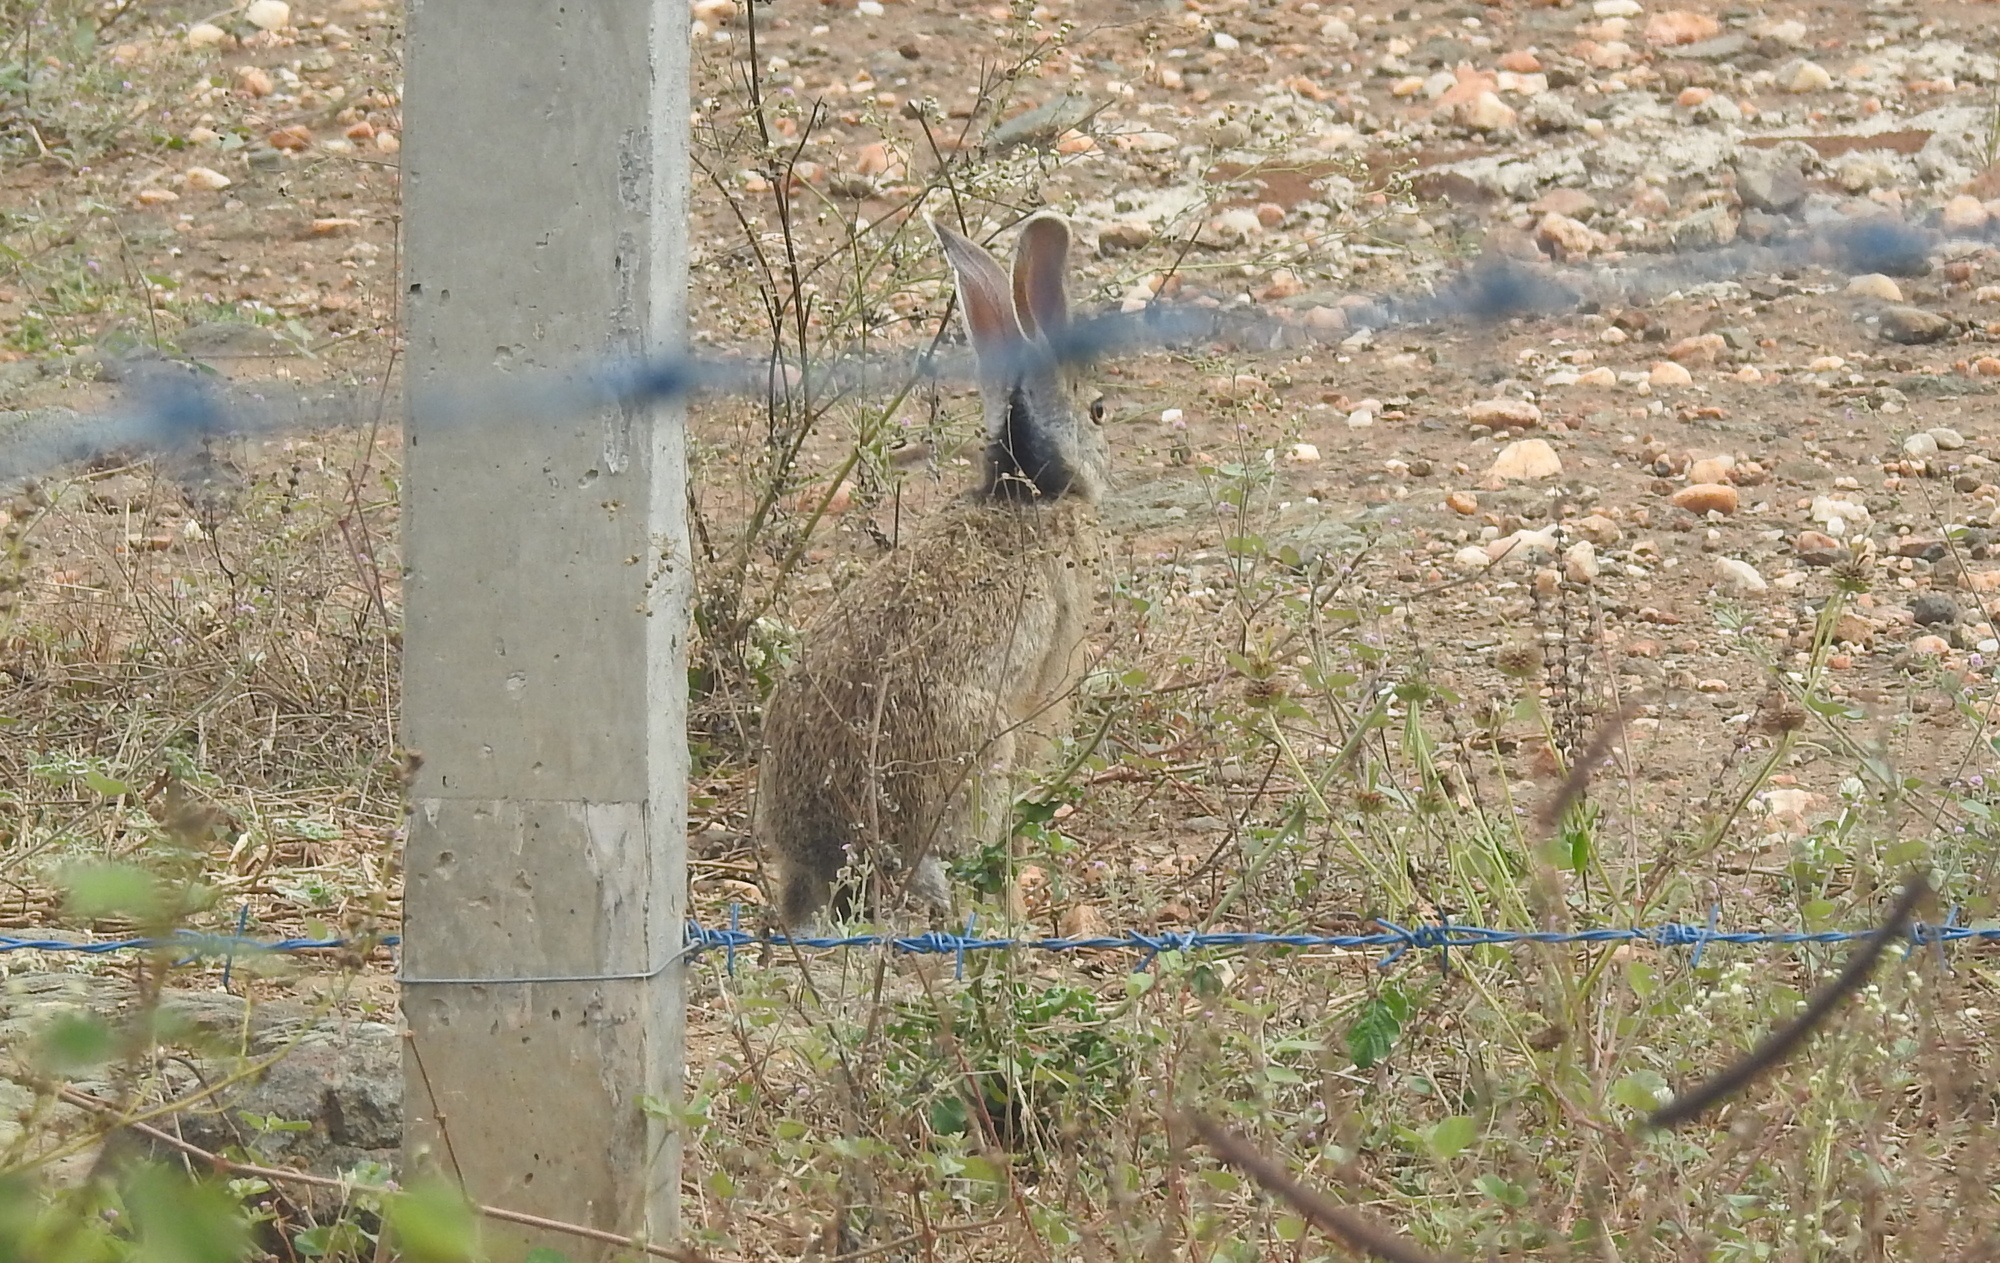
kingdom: Animalia
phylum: Chordata
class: Mammalia
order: Lagomorpha
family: Leporidae
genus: Lepus
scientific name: Lepus nigricollis
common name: Indian hare
